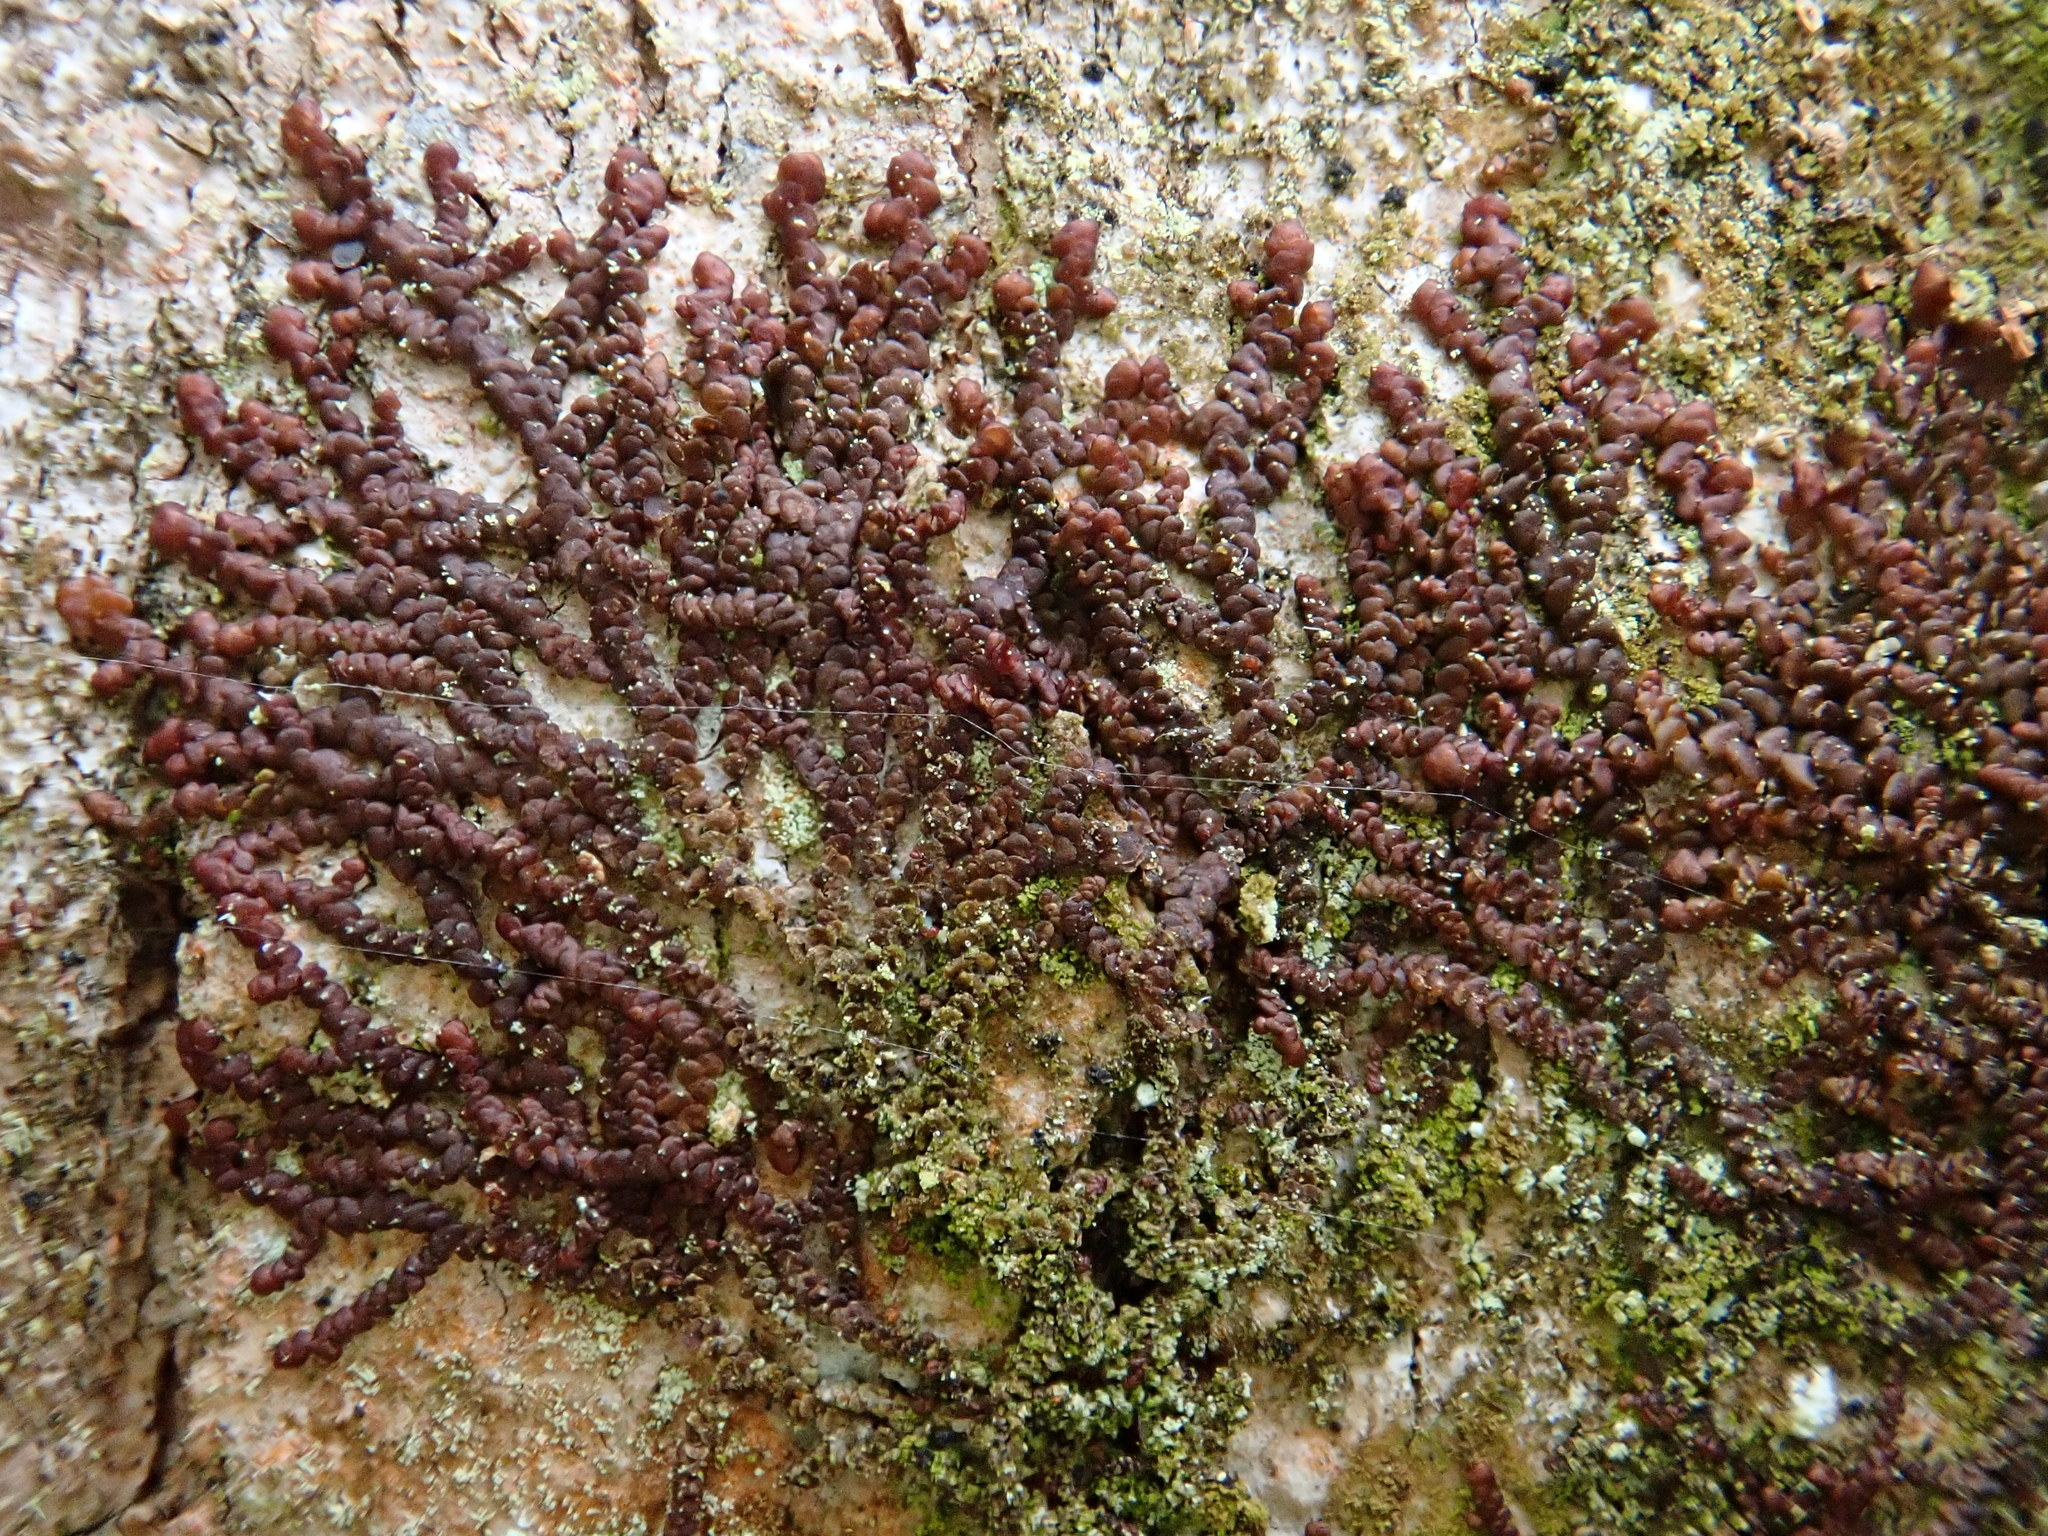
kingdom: Plantae
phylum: Marchantiophyta
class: Jungermanniopsida
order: Porellales
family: Frullaniaceae
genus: Frullania
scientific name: Frullania dilatata
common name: Dilated scalewort
